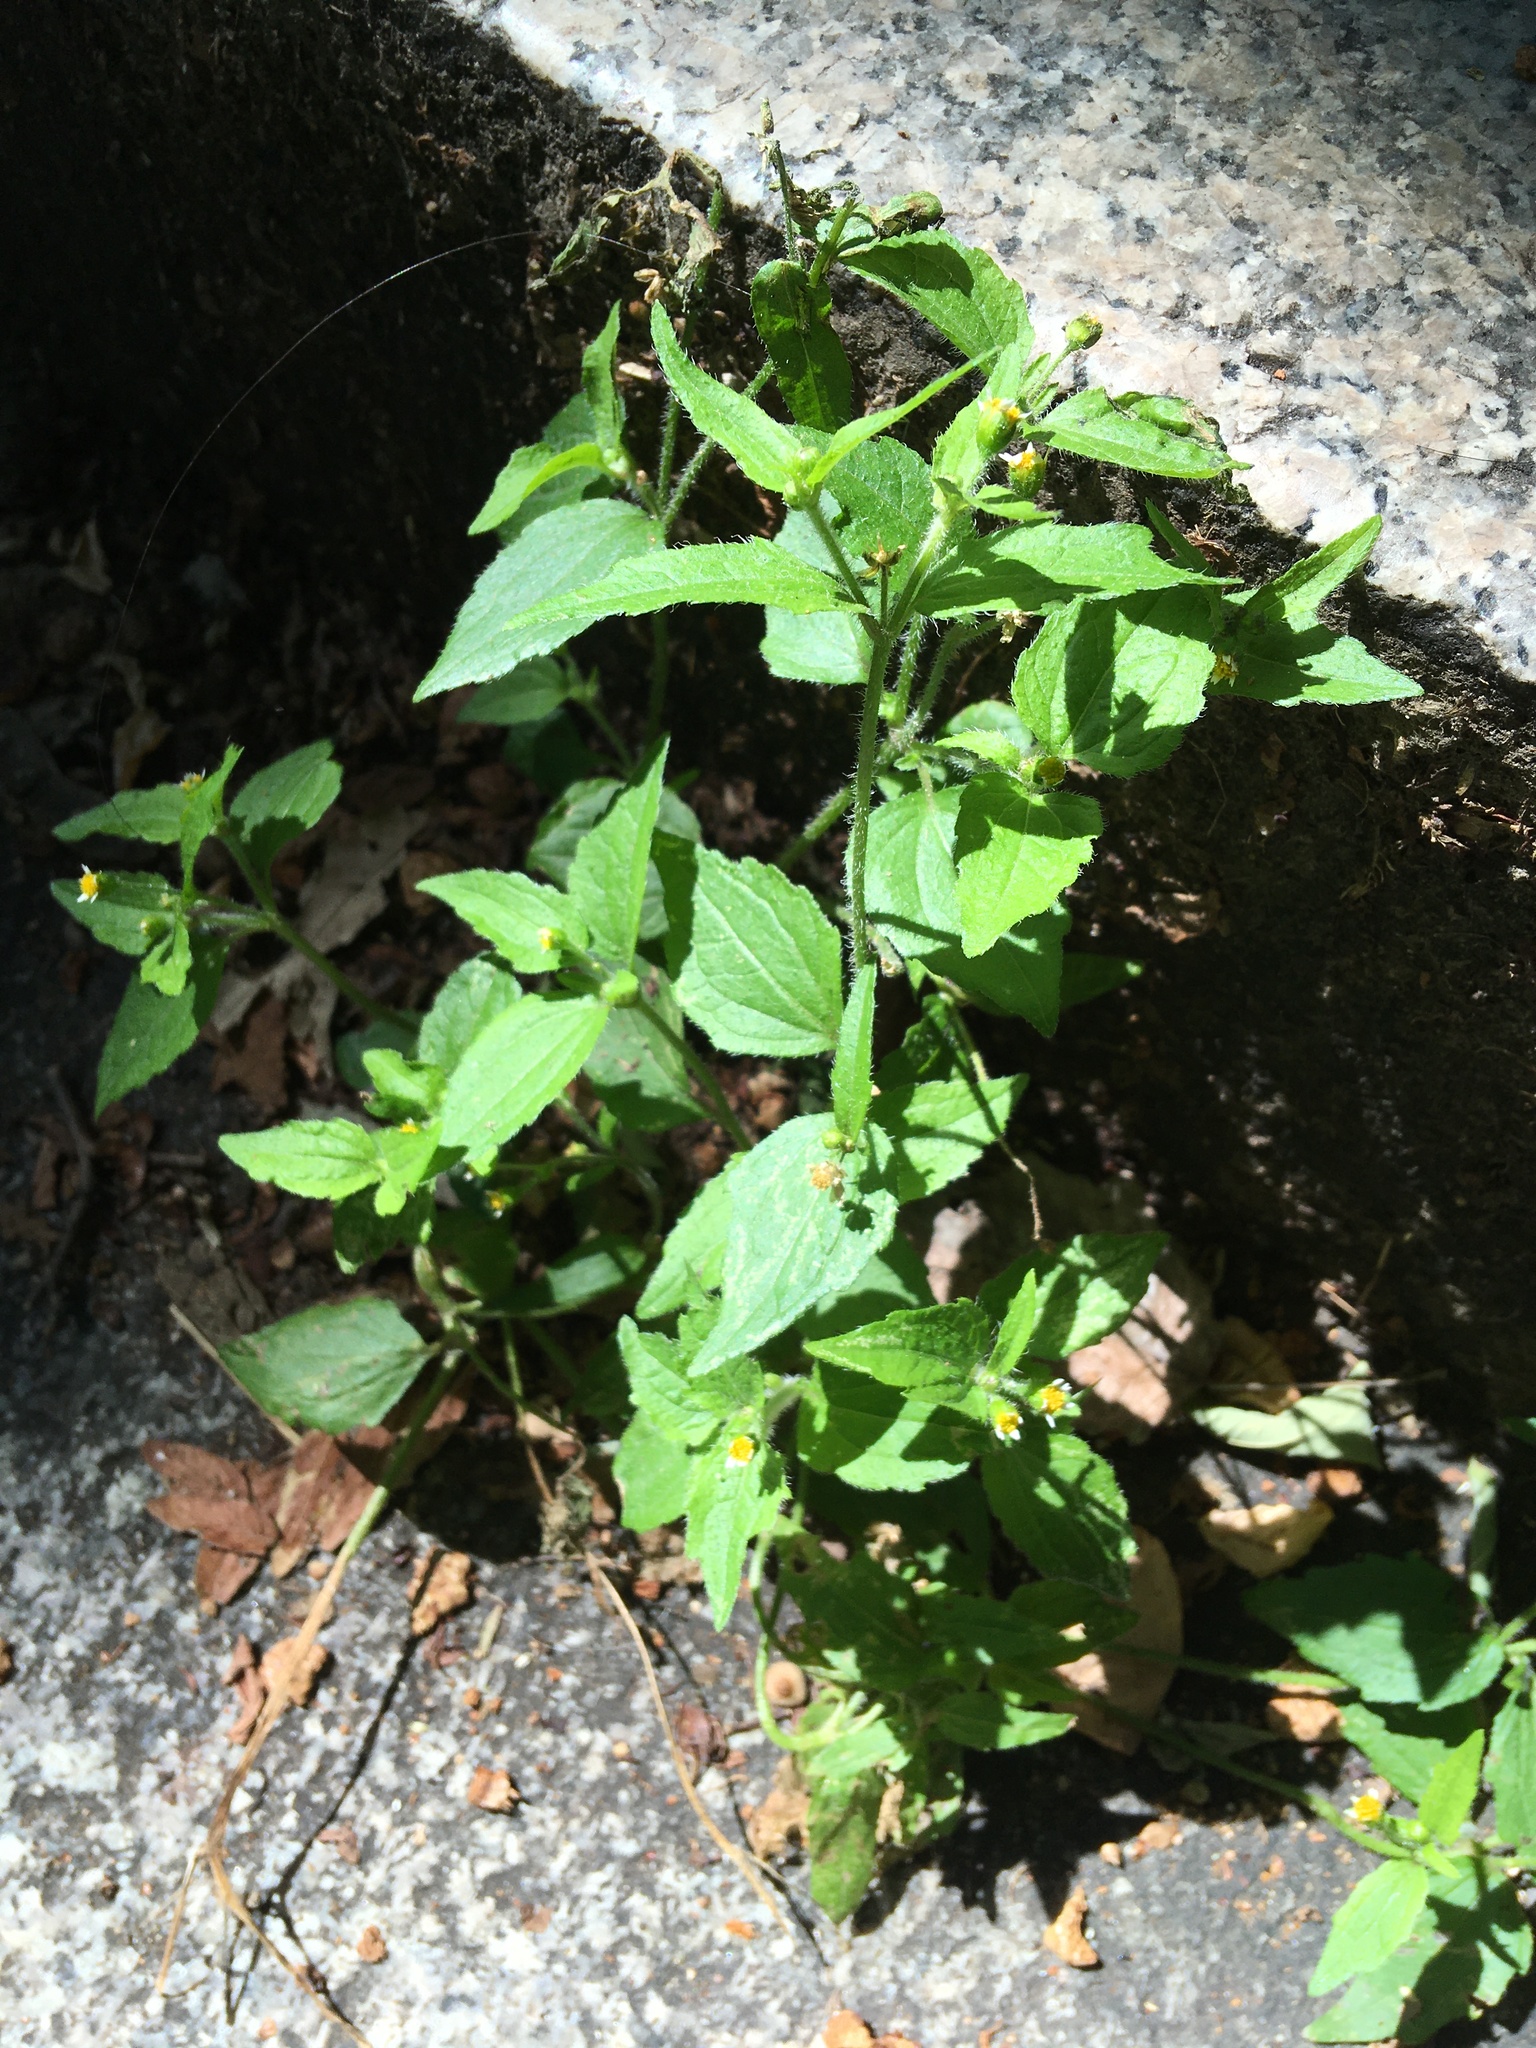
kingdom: Plantae
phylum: Tracheophyta
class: Magnoliopsida
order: Asterales
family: Asteraceae
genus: Galinsoga
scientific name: Galinsoga quadriradiata
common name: Shaggy soldier
